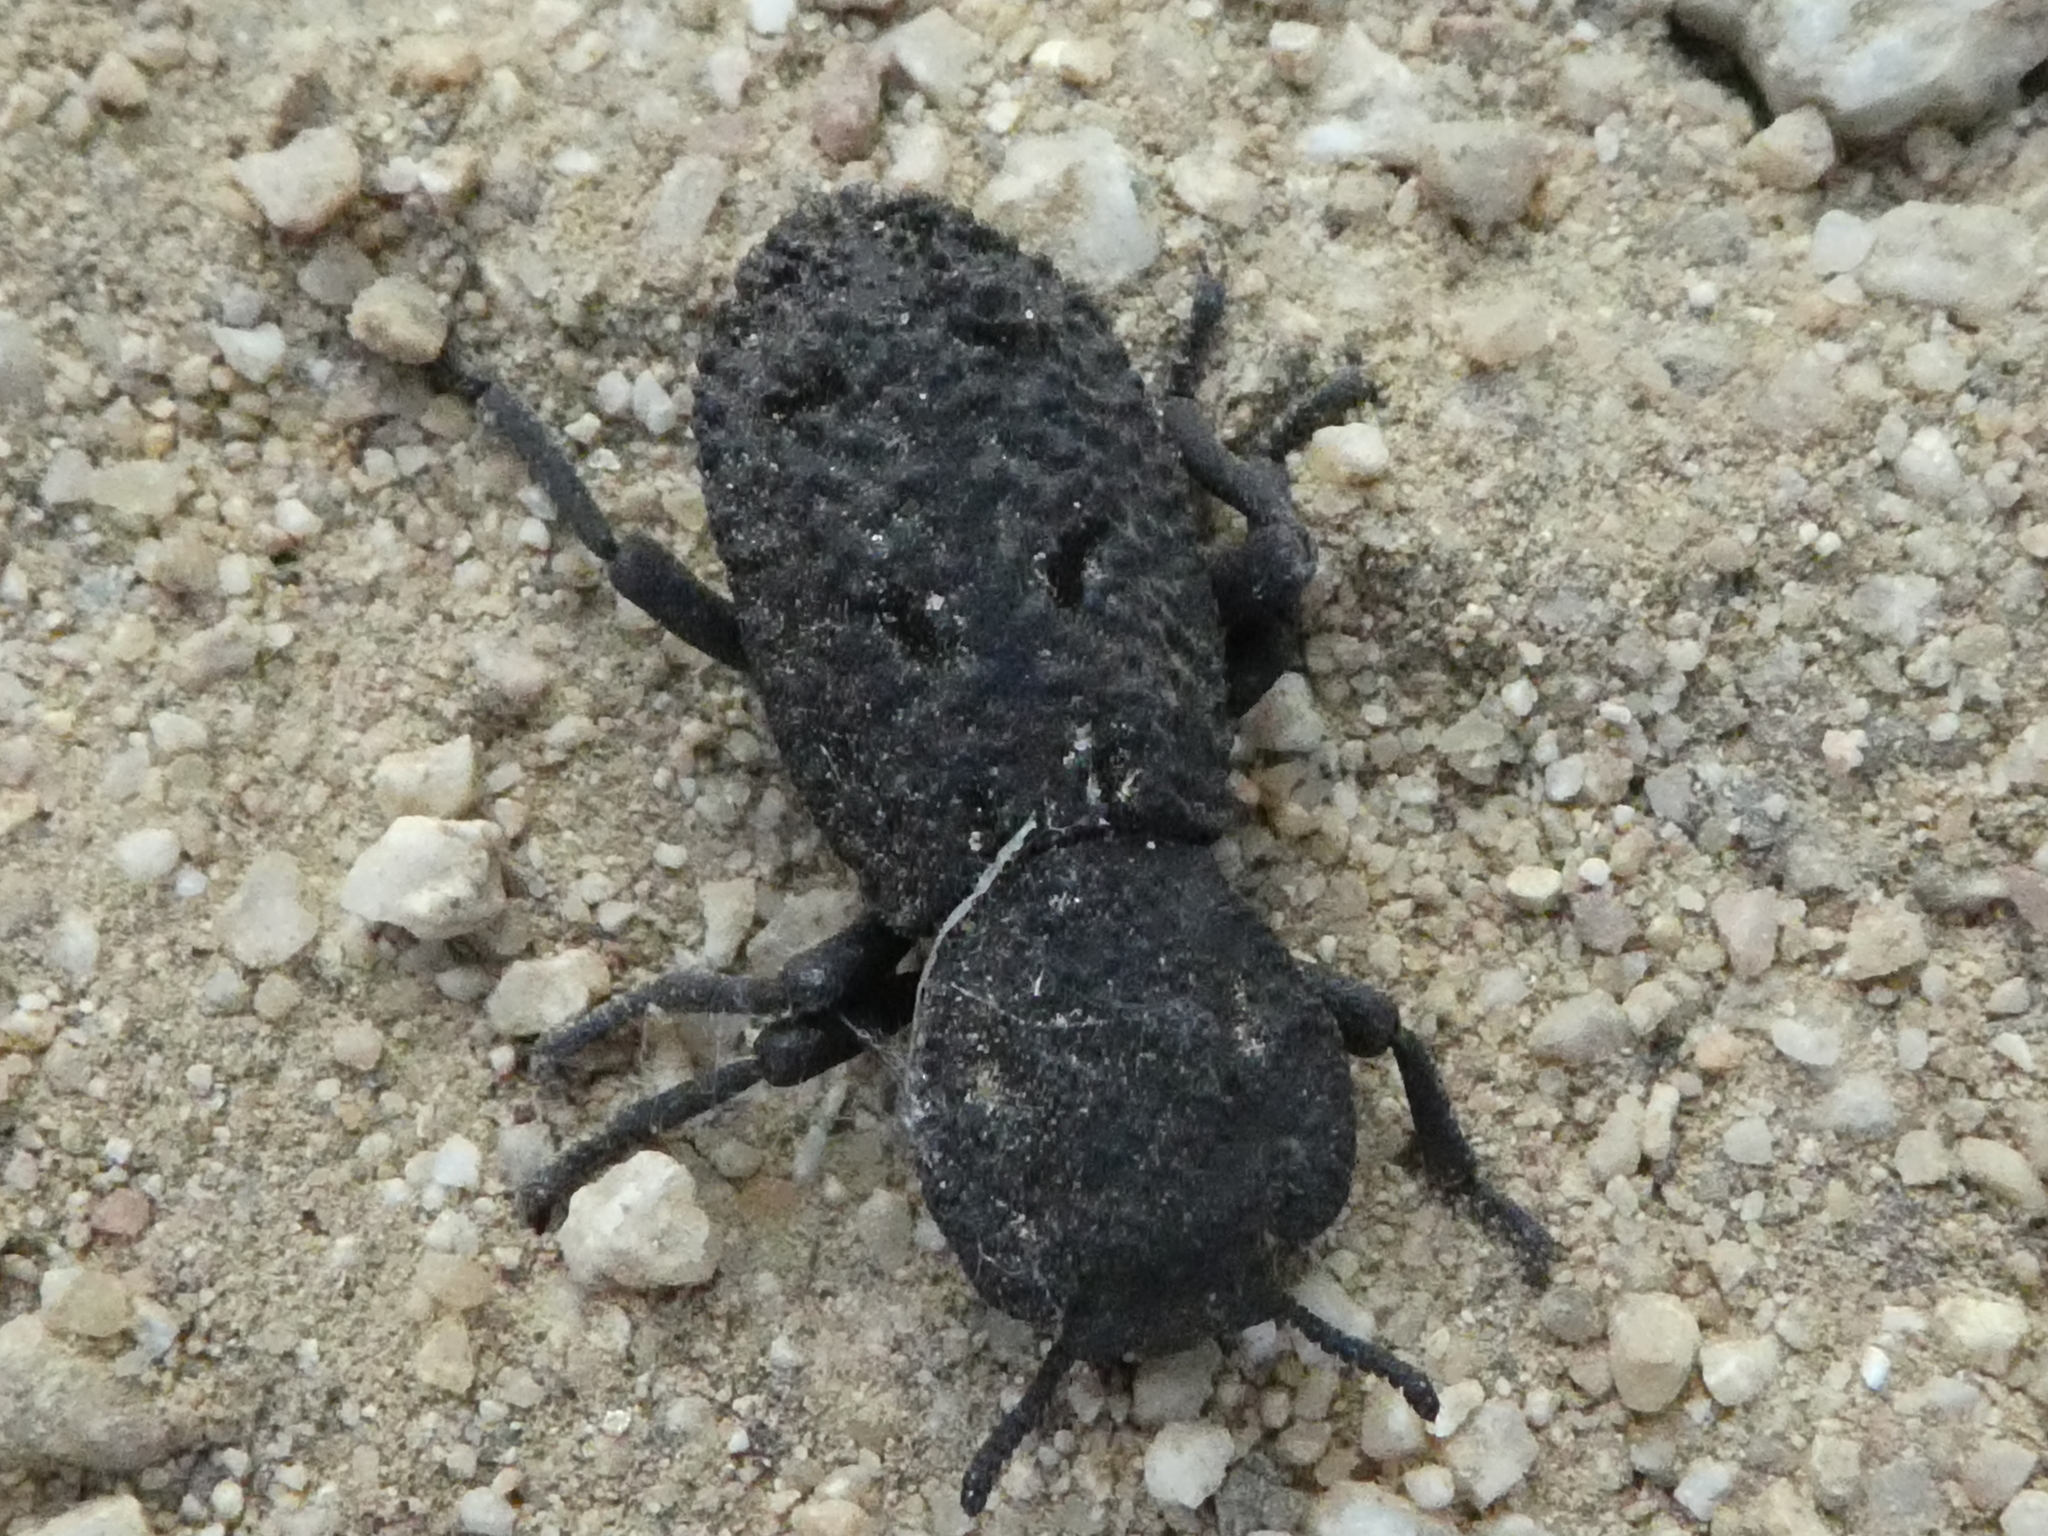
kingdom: Animalia
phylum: Arthropoda
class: Insecta
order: Coleoptera
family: Zopheridae
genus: Phloeodes
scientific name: Phloeodes diabolicus
